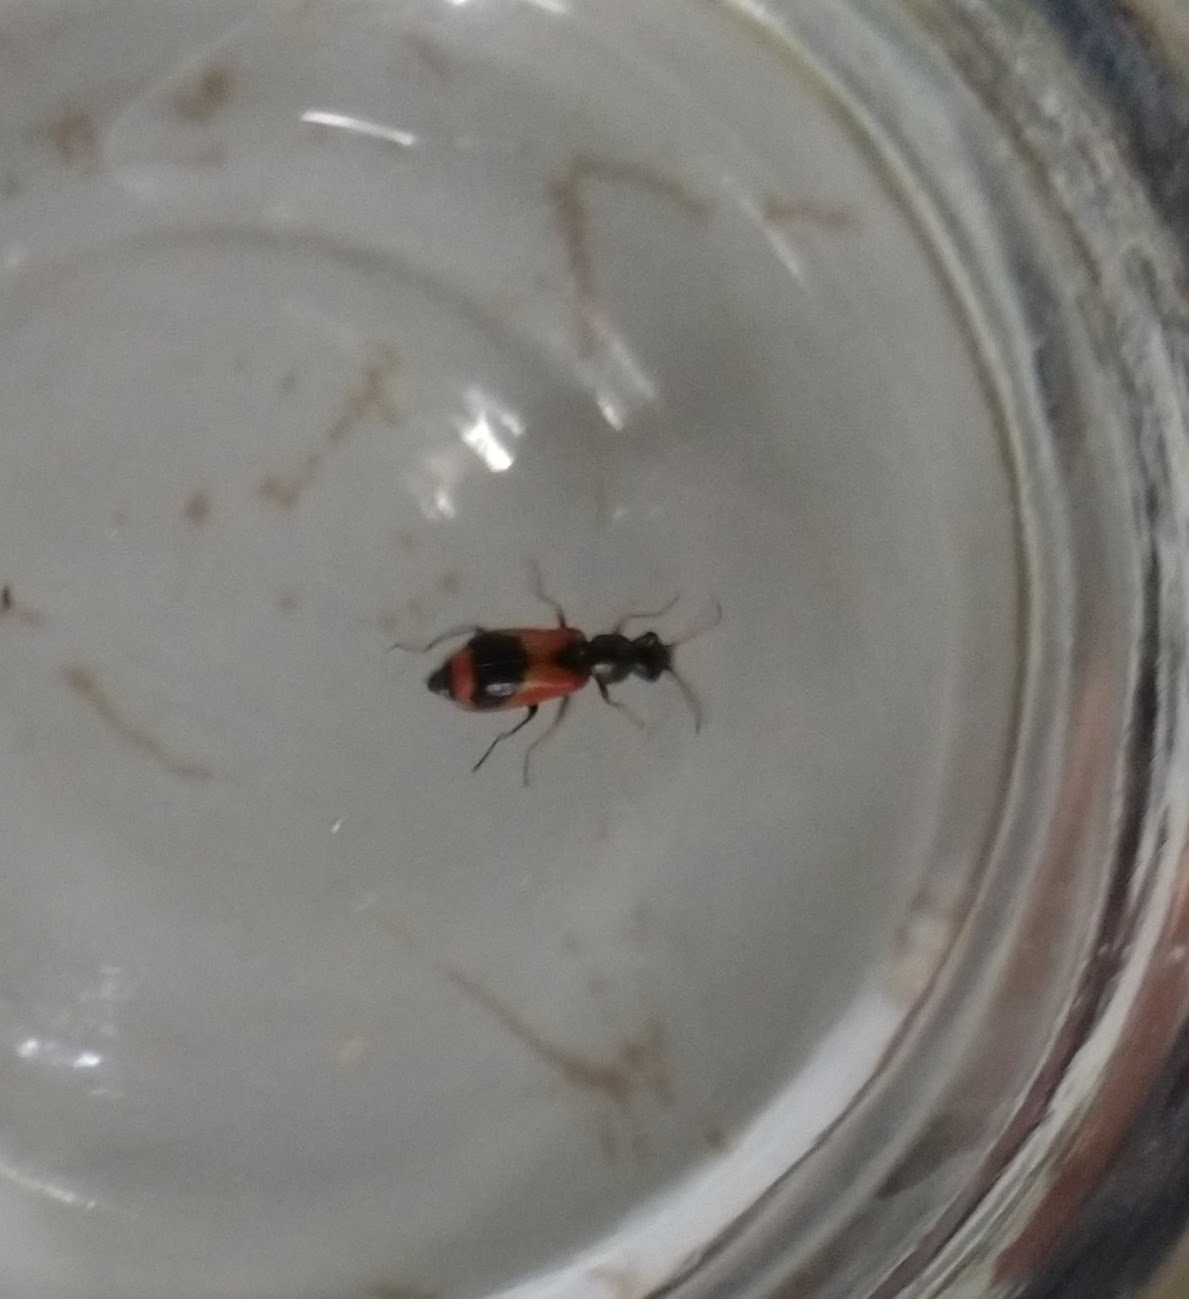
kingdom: Animalia
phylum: Arthropoda
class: Insecta
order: Coleoptera
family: Melyridae
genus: Anthocomus
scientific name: Anthocomus equestris
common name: Black-banded soft-winged flower beetle
